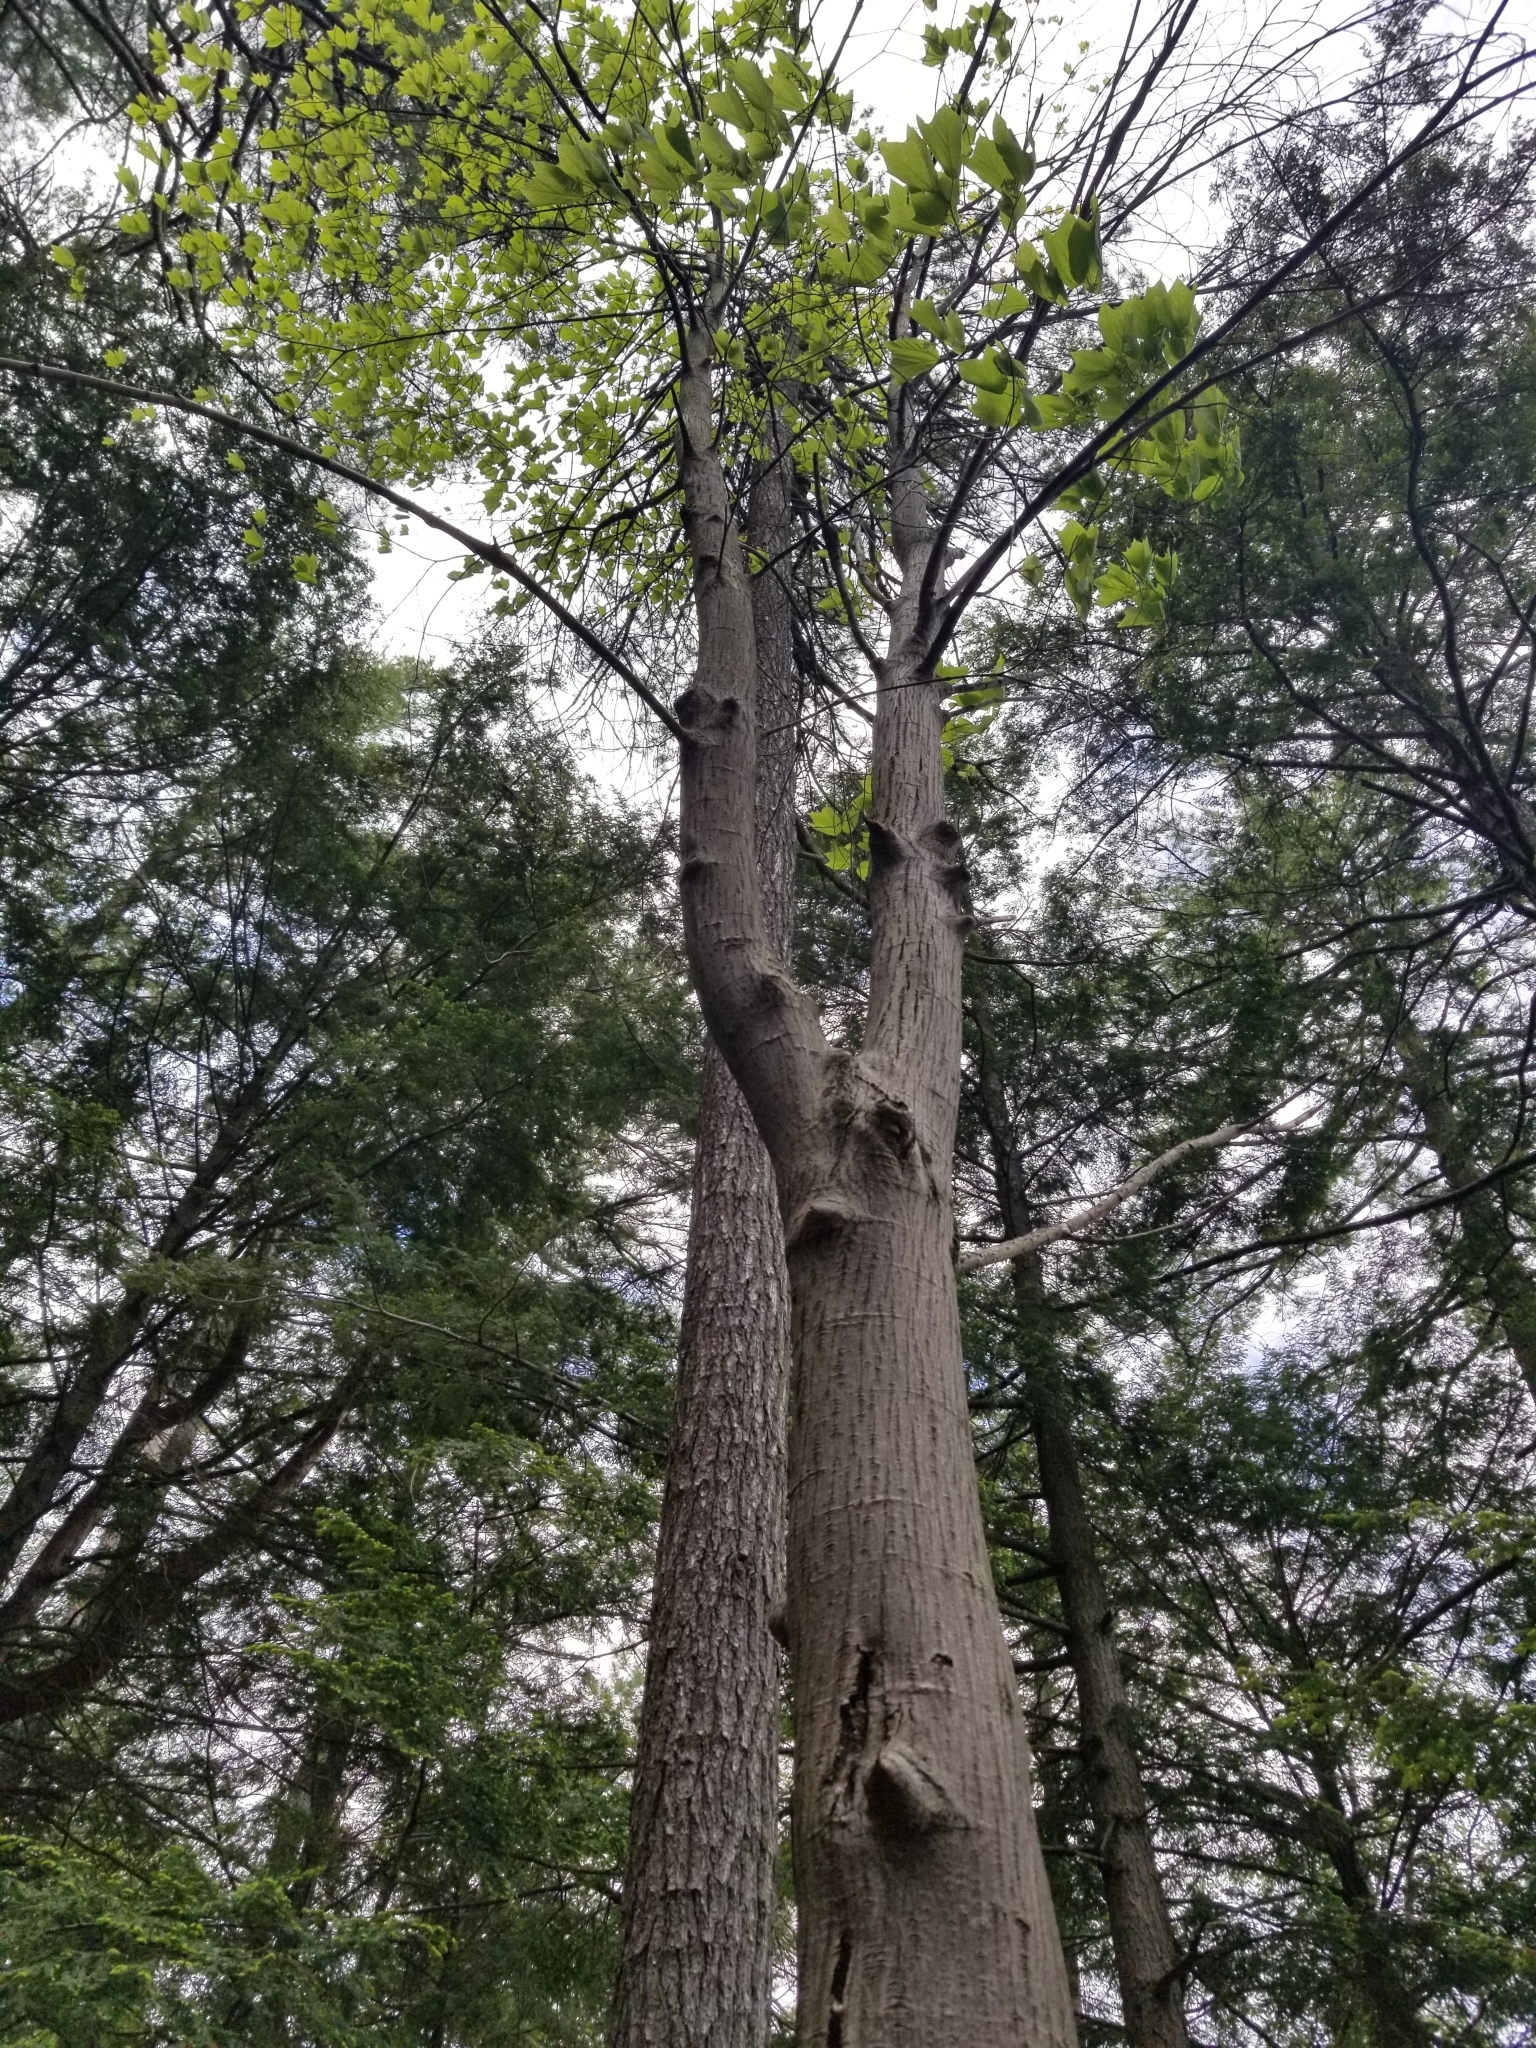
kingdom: Plantae
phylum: Tracheophyta
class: Magnoliopsida
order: Sapindales
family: Sapindaceae
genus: Acer
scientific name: Acer pensylvanicum
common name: Moosewood
